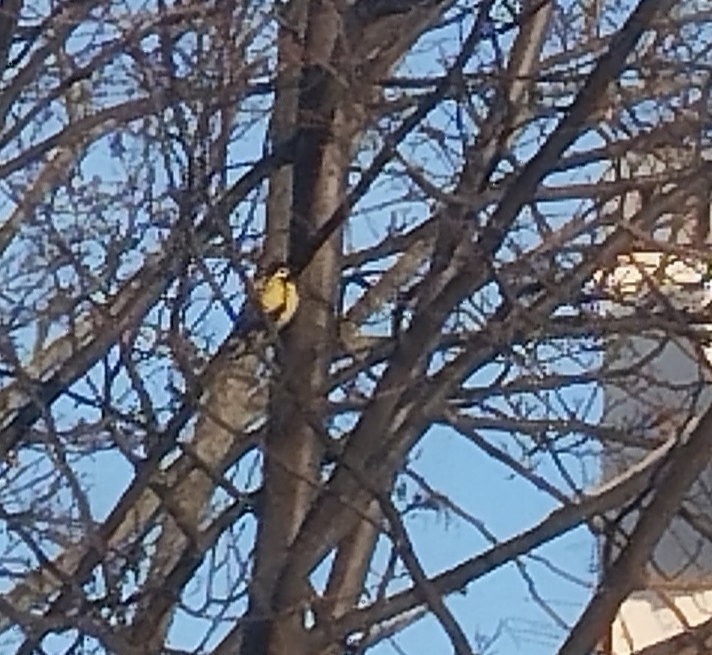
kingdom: Animalia
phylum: Chordata
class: Aves
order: Passeriformes
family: Paridae
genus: Parus
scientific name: Parus major
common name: Great tit
